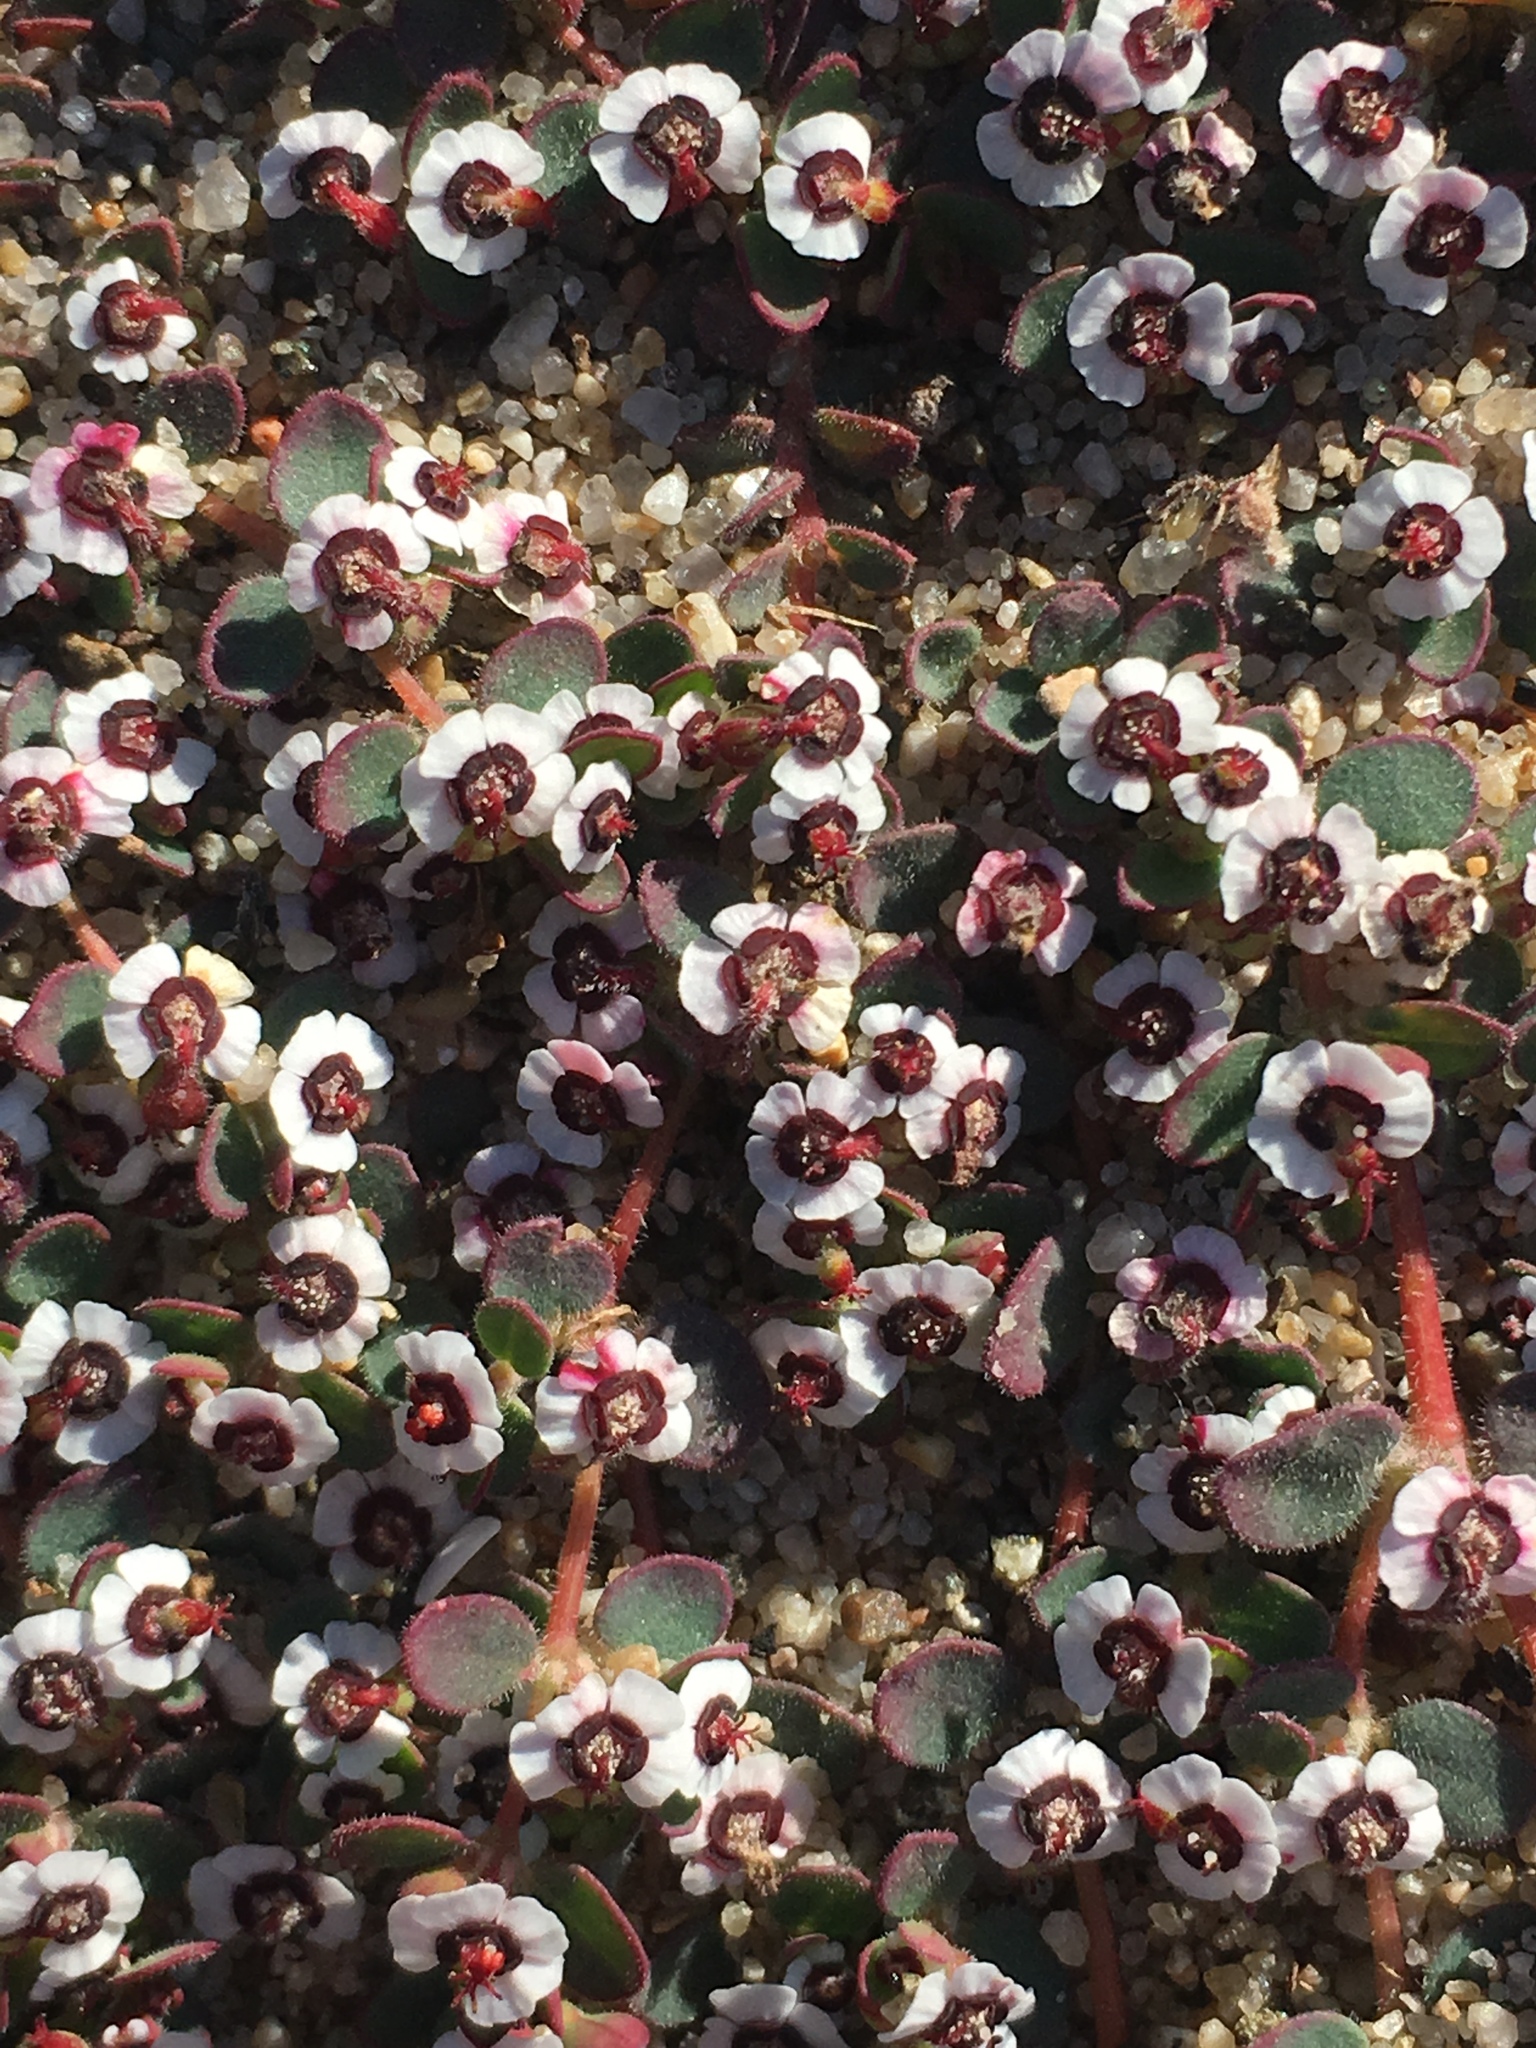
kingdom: Plantae
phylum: Tracheophyta
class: Magnoliopsida
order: Malpighiales
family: Euphorbiaceae
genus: Euphorbia
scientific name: Euphorbia polycarpa
